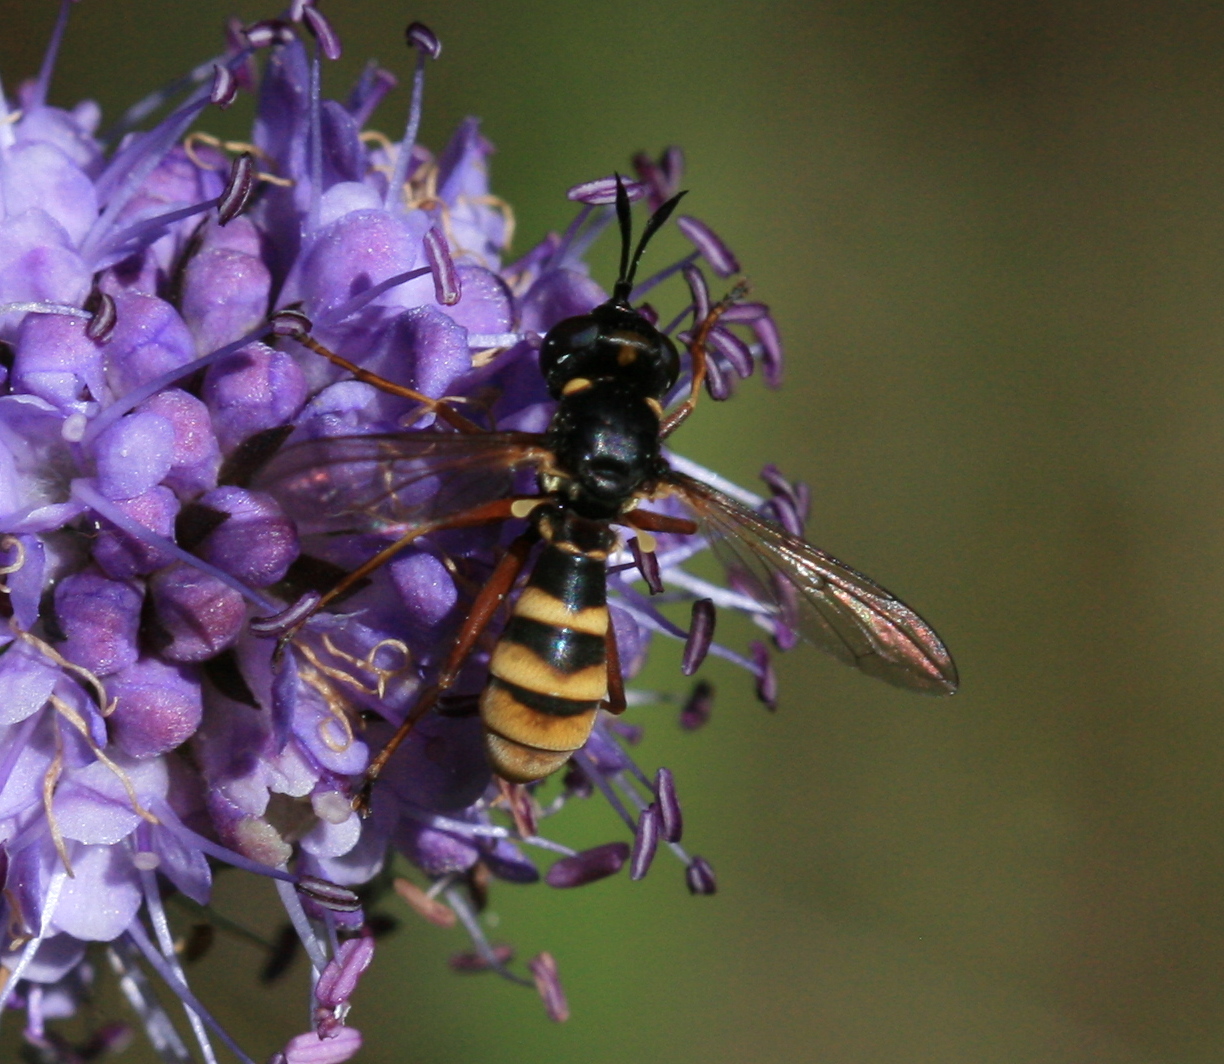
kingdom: Animalia
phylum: Arthropoda
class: Insecta
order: Diptera
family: Conopidae
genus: Conops
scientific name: Conops quadrifasciatus
